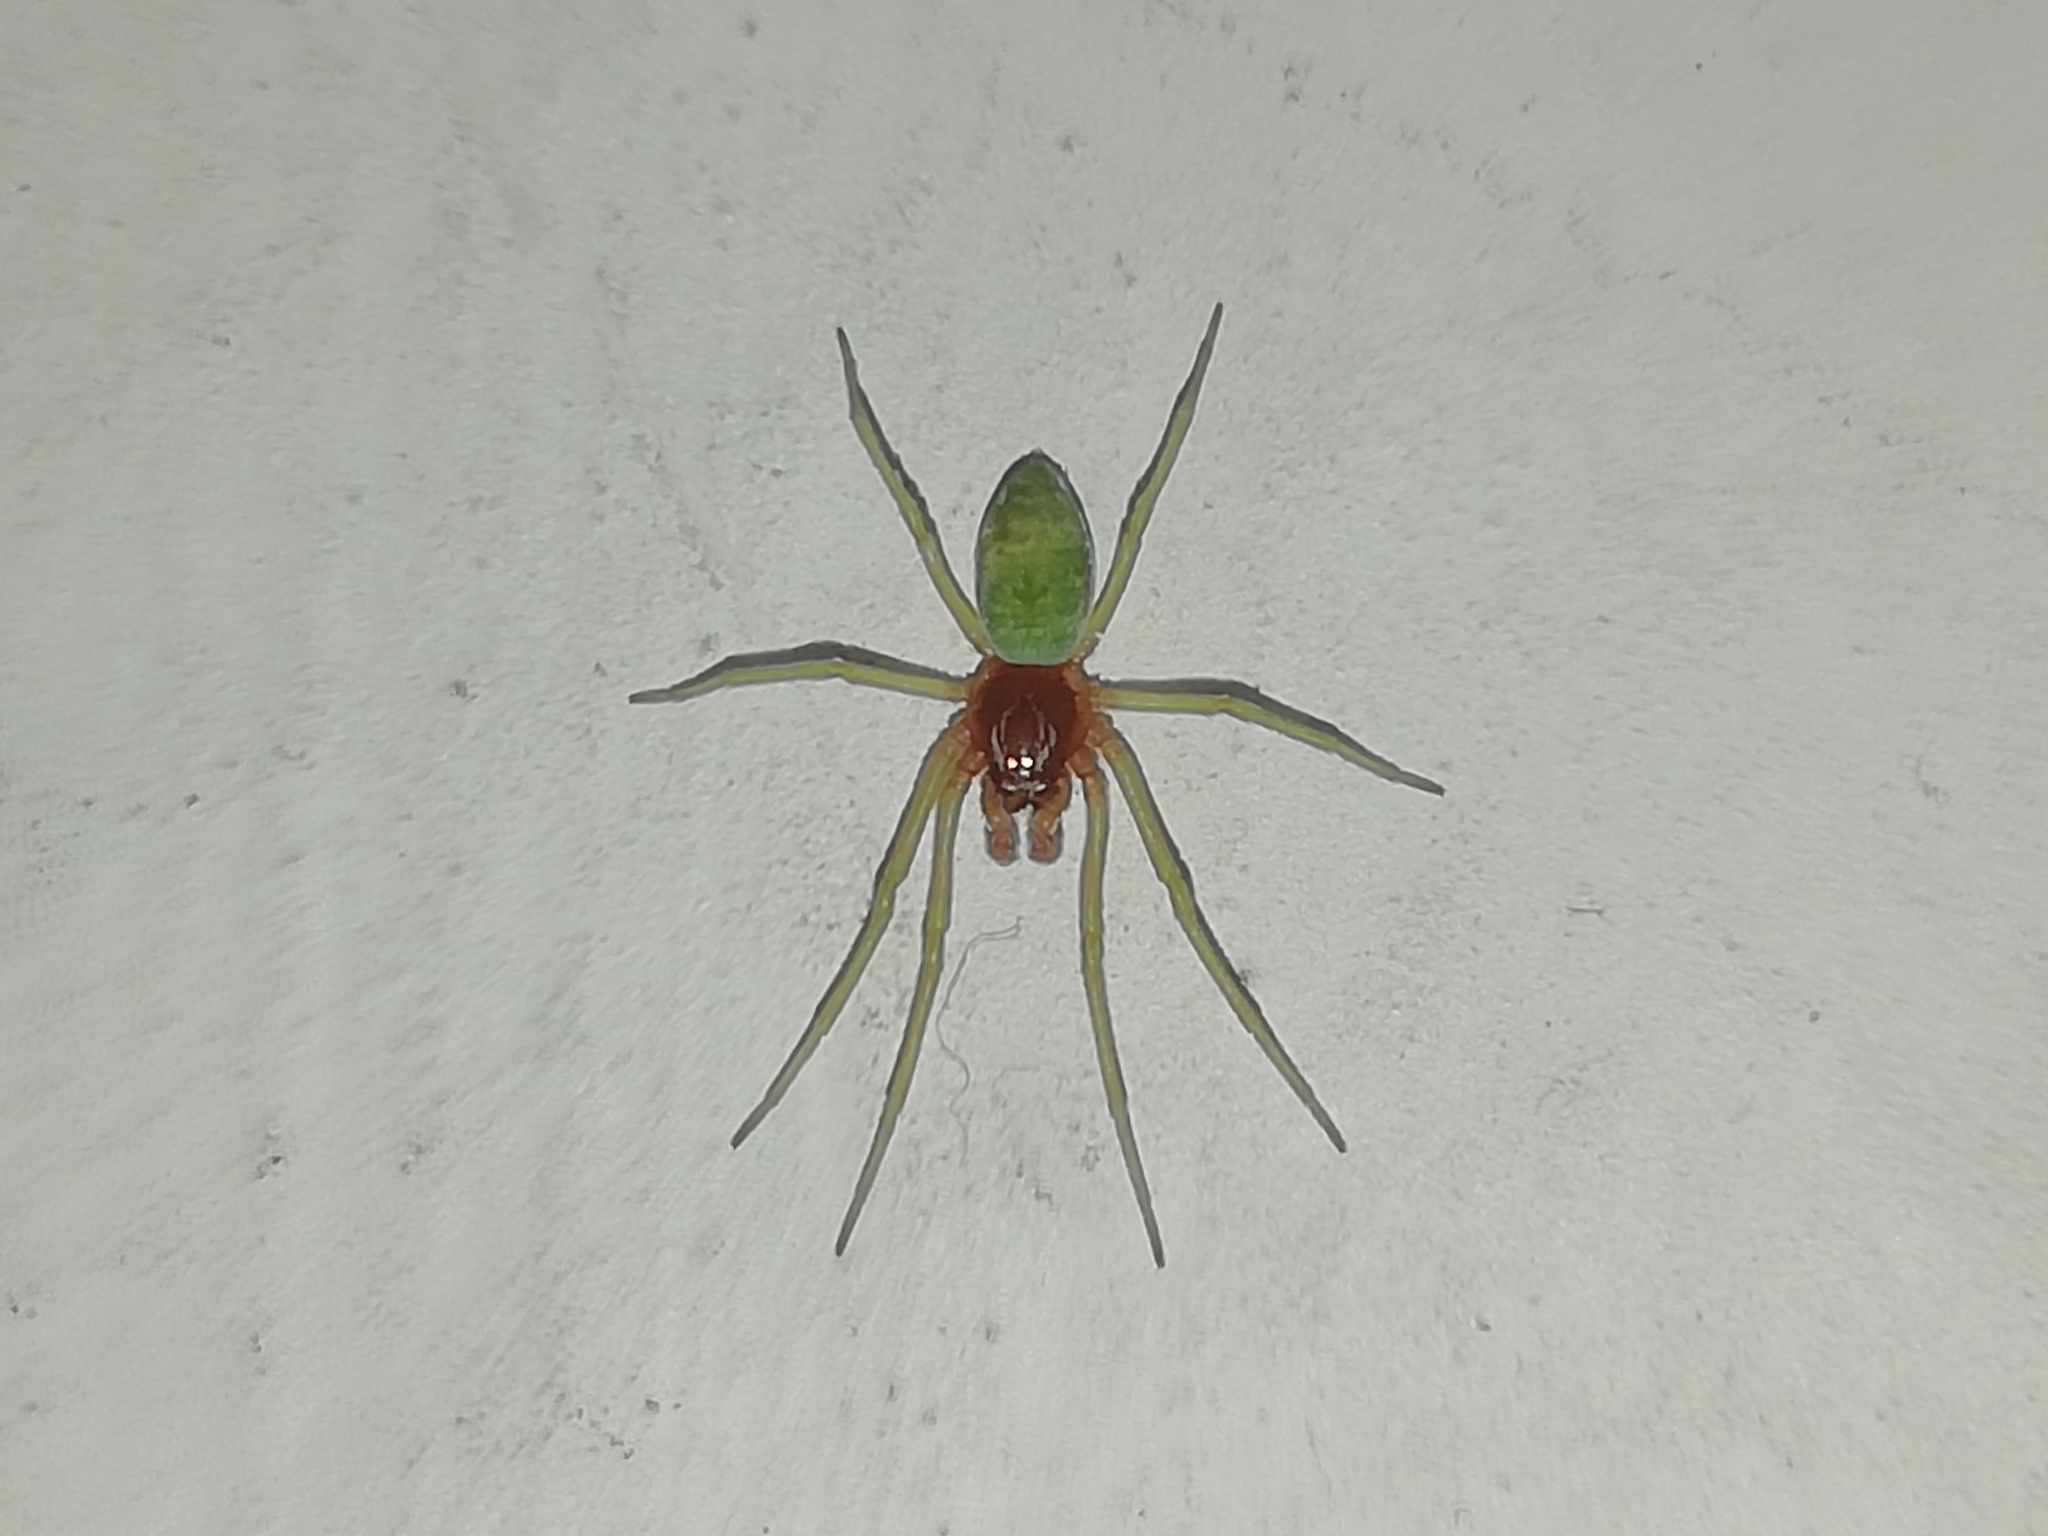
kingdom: Animalia
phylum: Arthropoda
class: Arachnida
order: Araneae
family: Dictynidae
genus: Nigma
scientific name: Nigma walckenaeri
